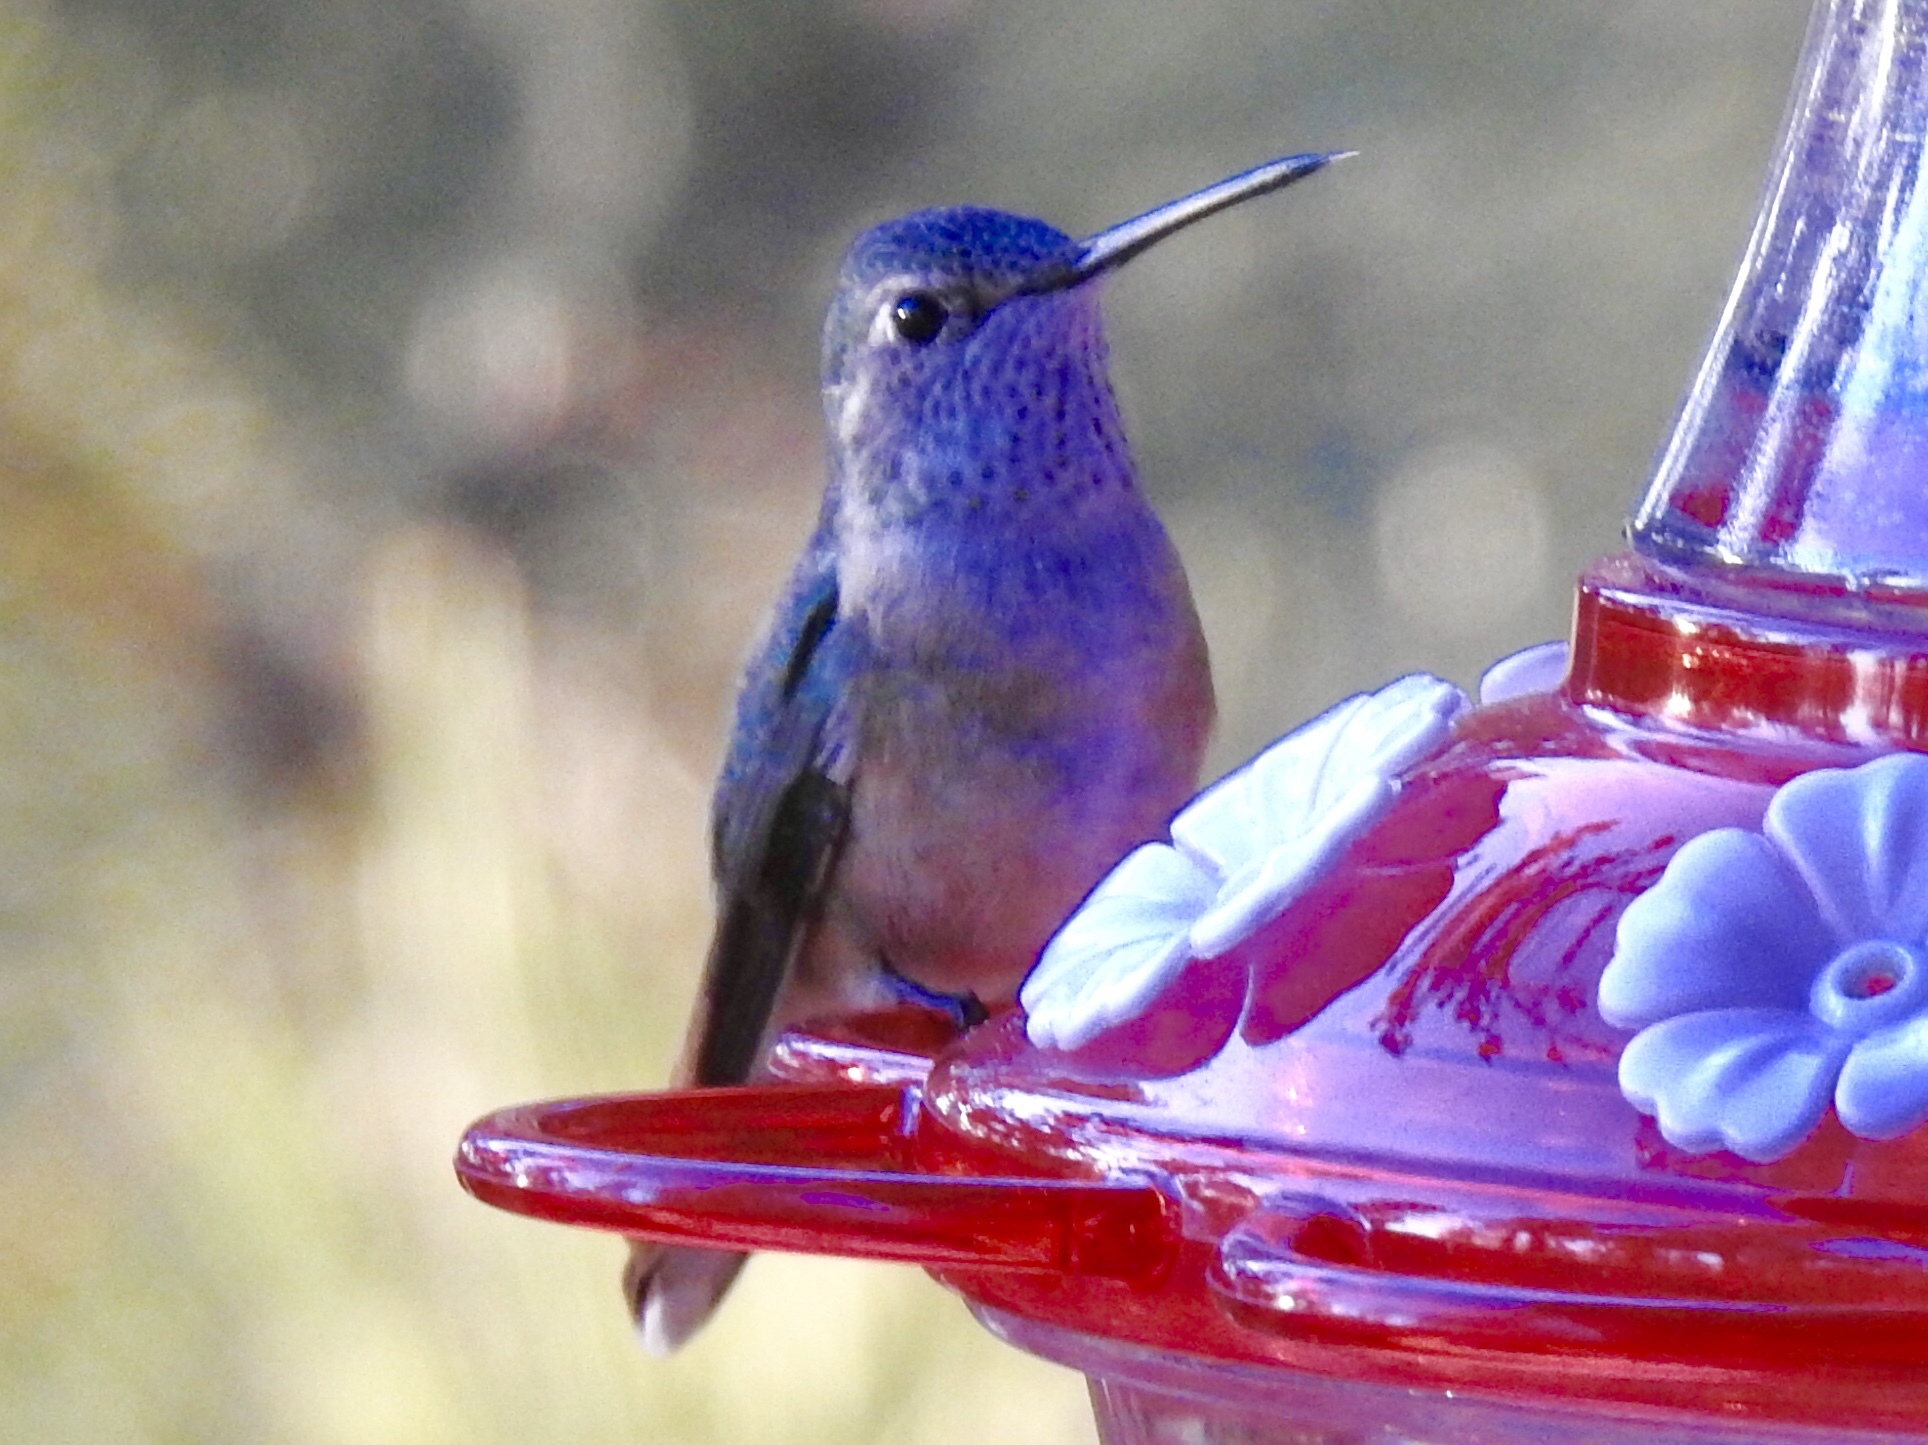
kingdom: Animalia
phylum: Chordata
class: Aves
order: Apodiformes
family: Trochilidae
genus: Selasphorus
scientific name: Selasphorus platycercus
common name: Broad-tailed hummingbird
